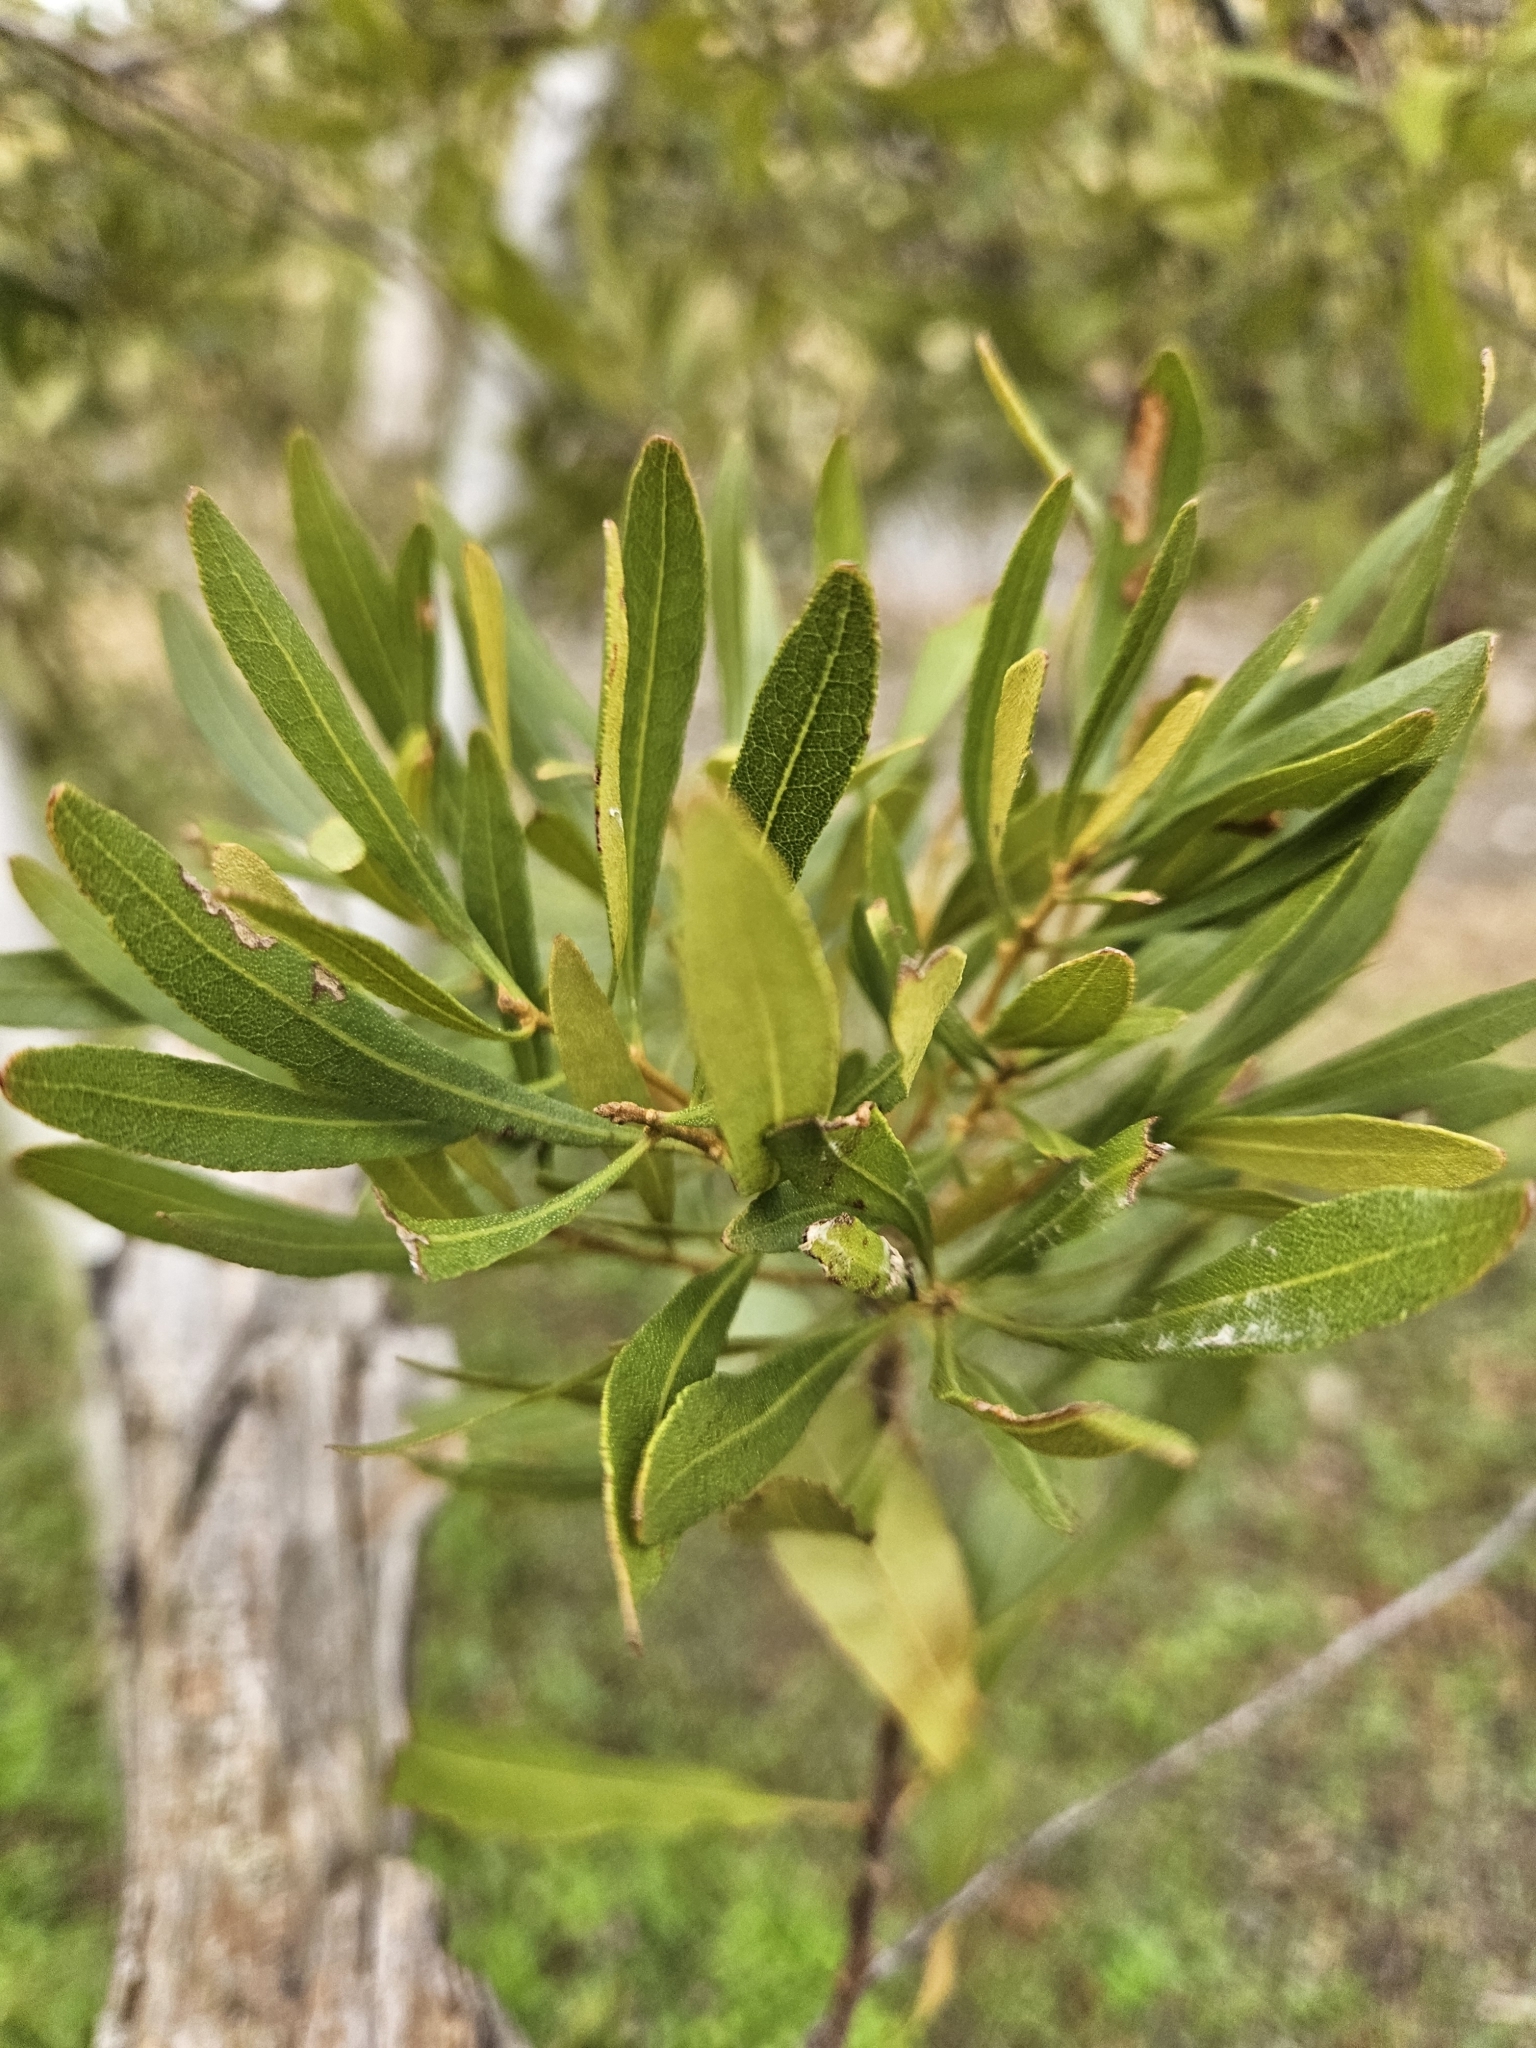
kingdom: Plantae
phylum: Tracheophyta
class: Magnoliopsida
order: Fagales
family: Myricaceae
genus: Morella
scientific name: Morella cerifera
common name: Wax myrtle
